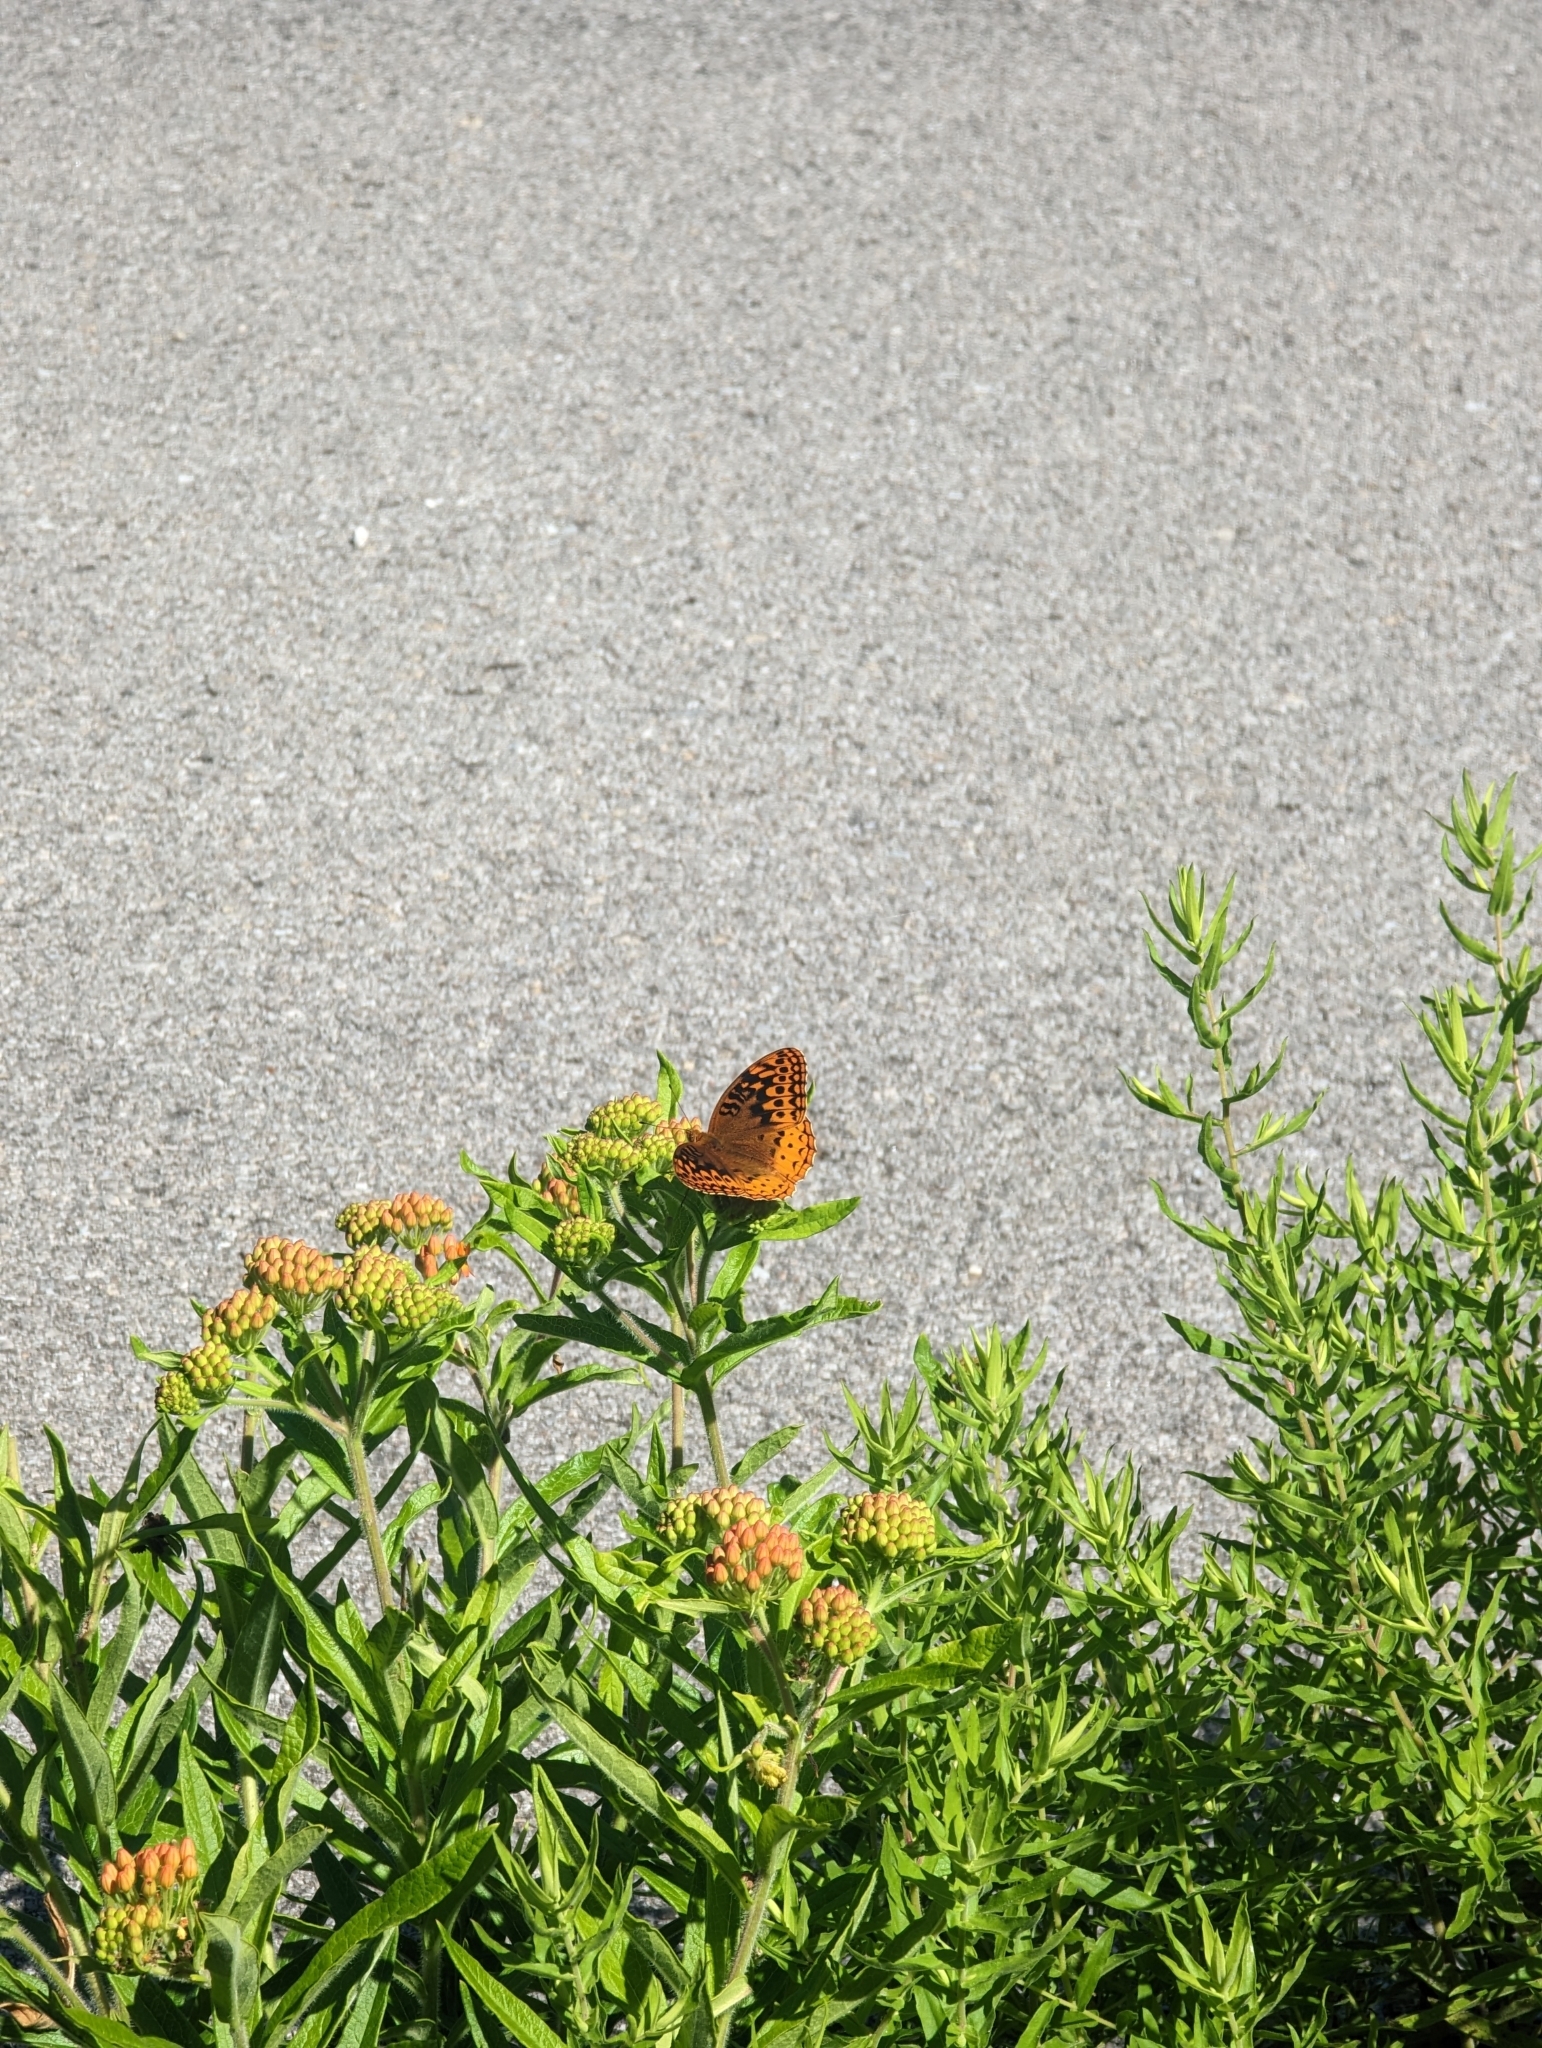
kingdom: Animalia
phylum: Arthropoda
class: Insecta
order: Lepidoptera
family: Nymphalidae
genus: Speyeria
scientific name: Speyeria cybele
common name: Great spangled fritillary
